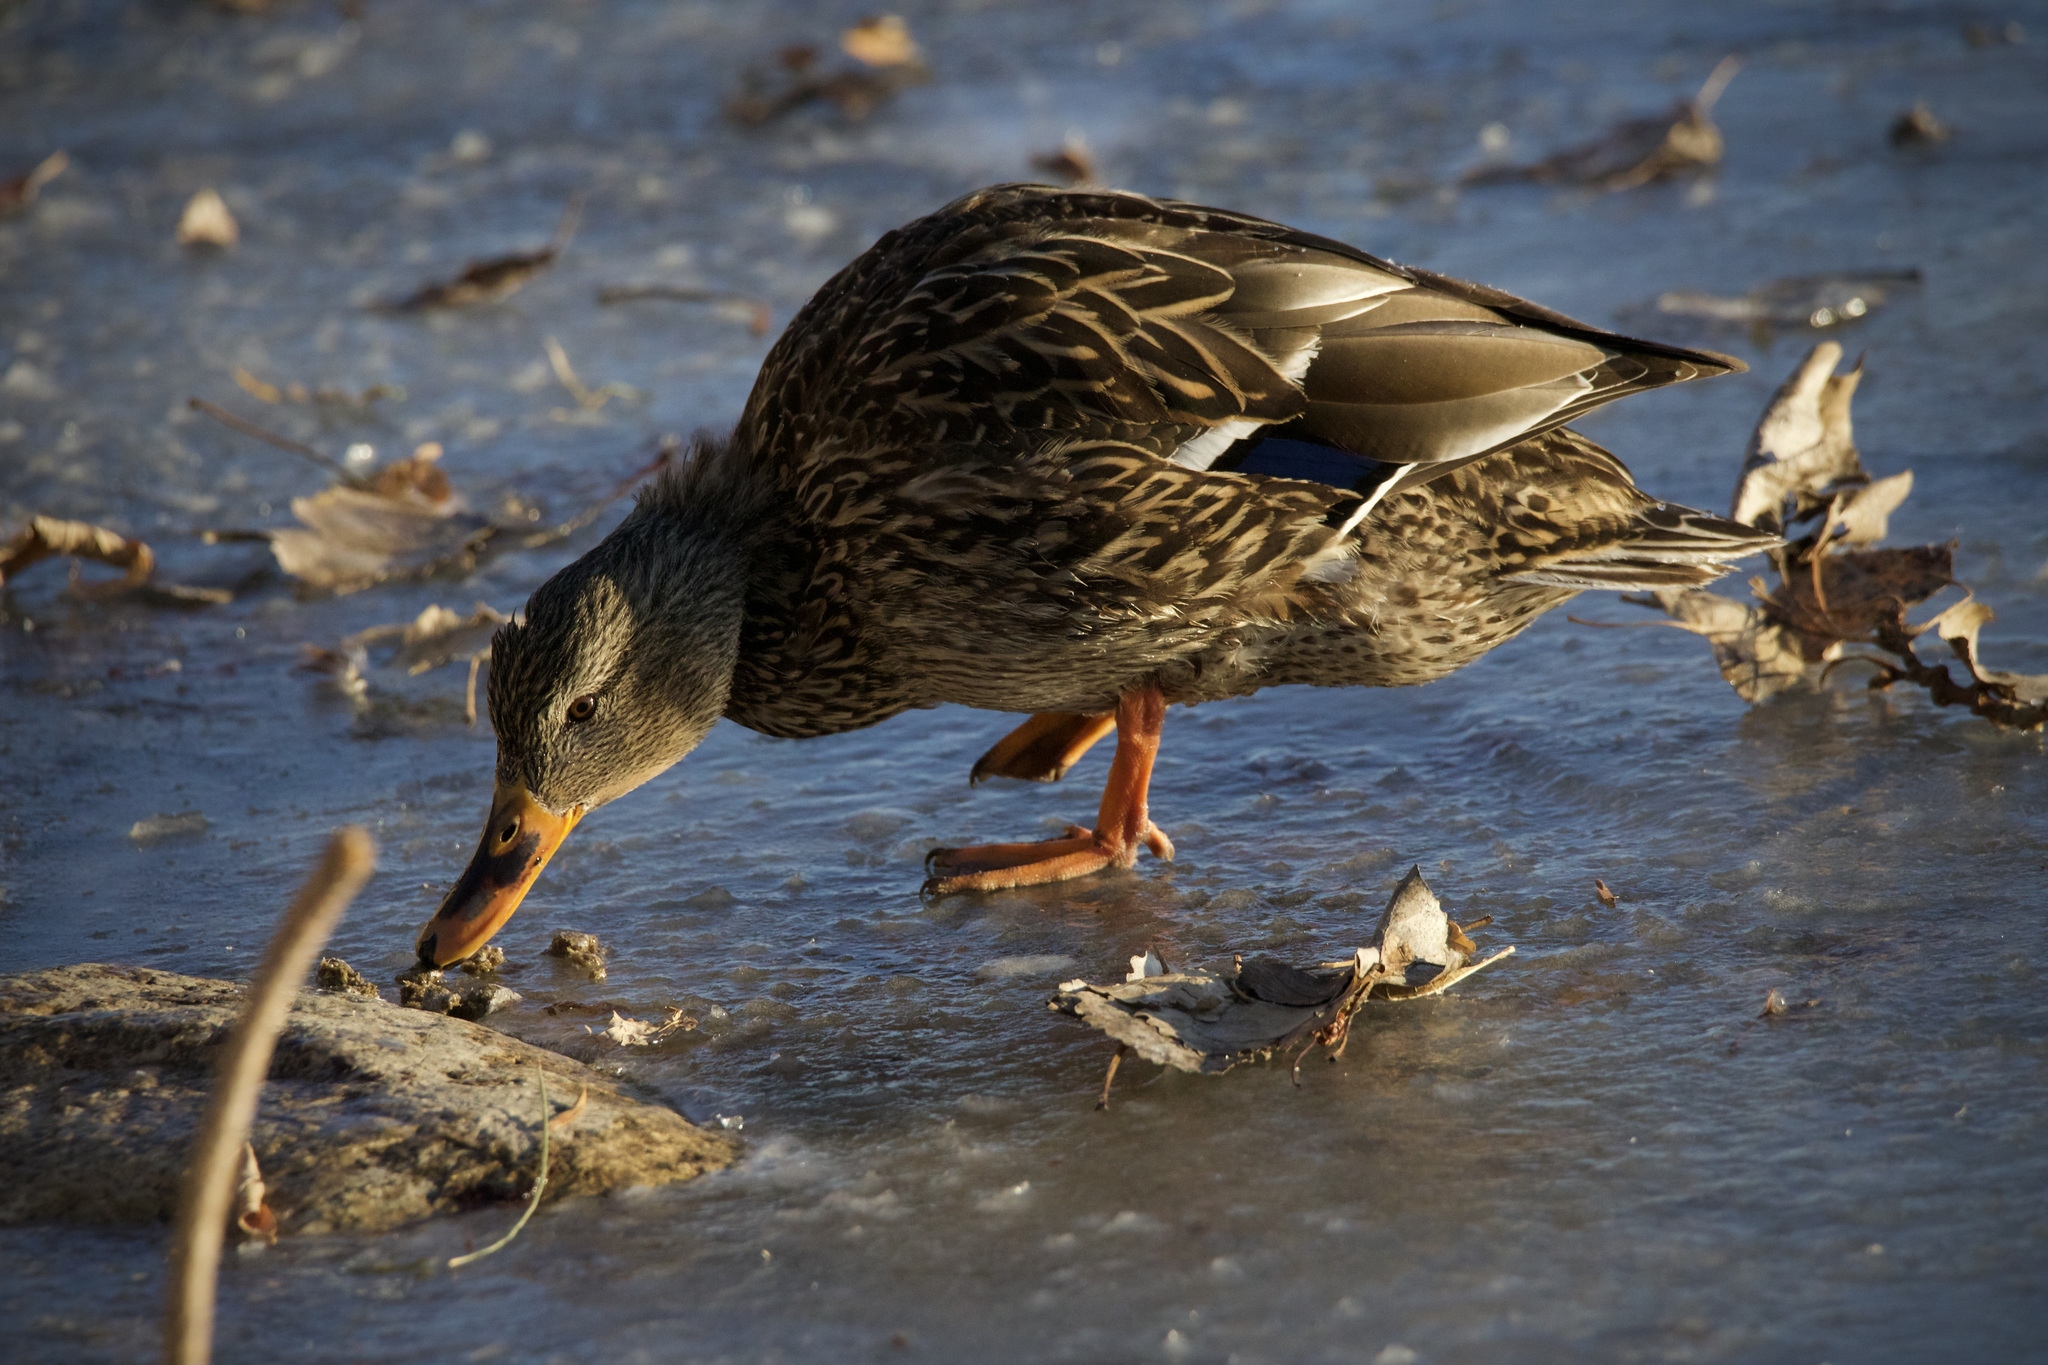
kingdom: Animalia
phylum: Chordata
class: Aves
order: Anseriformes
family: Anatidae
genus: Anas
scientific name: Anas platyrhynchos
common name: Mallard
